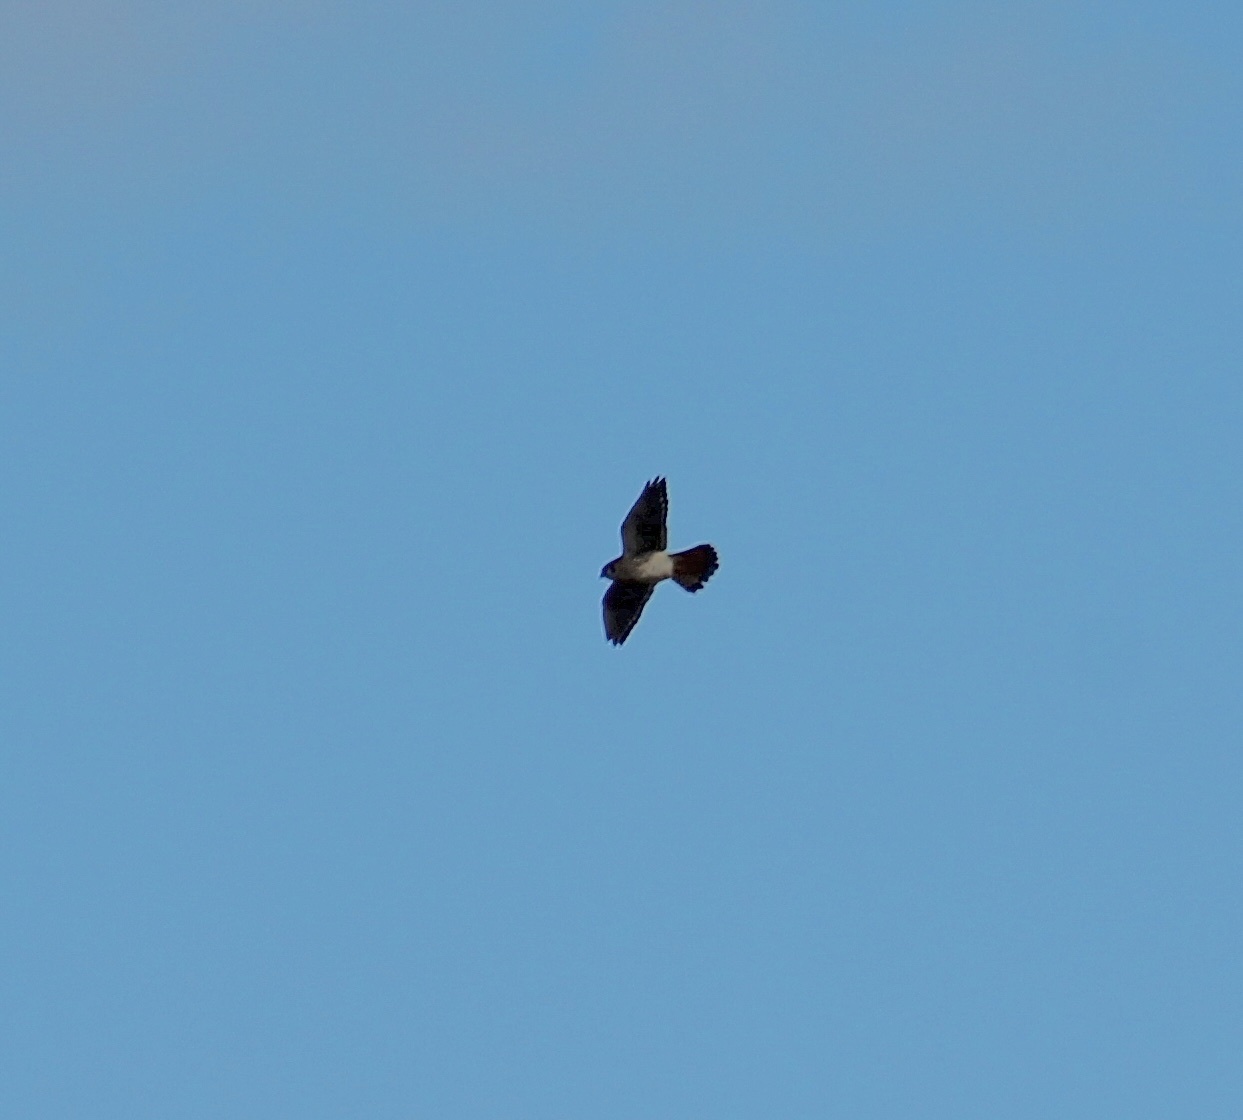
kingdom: Animalia
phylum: Chordata
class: Aves
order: Falconiformes
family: Falconidae
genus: Falco
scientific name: Falco sparverius
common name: American kestrel
